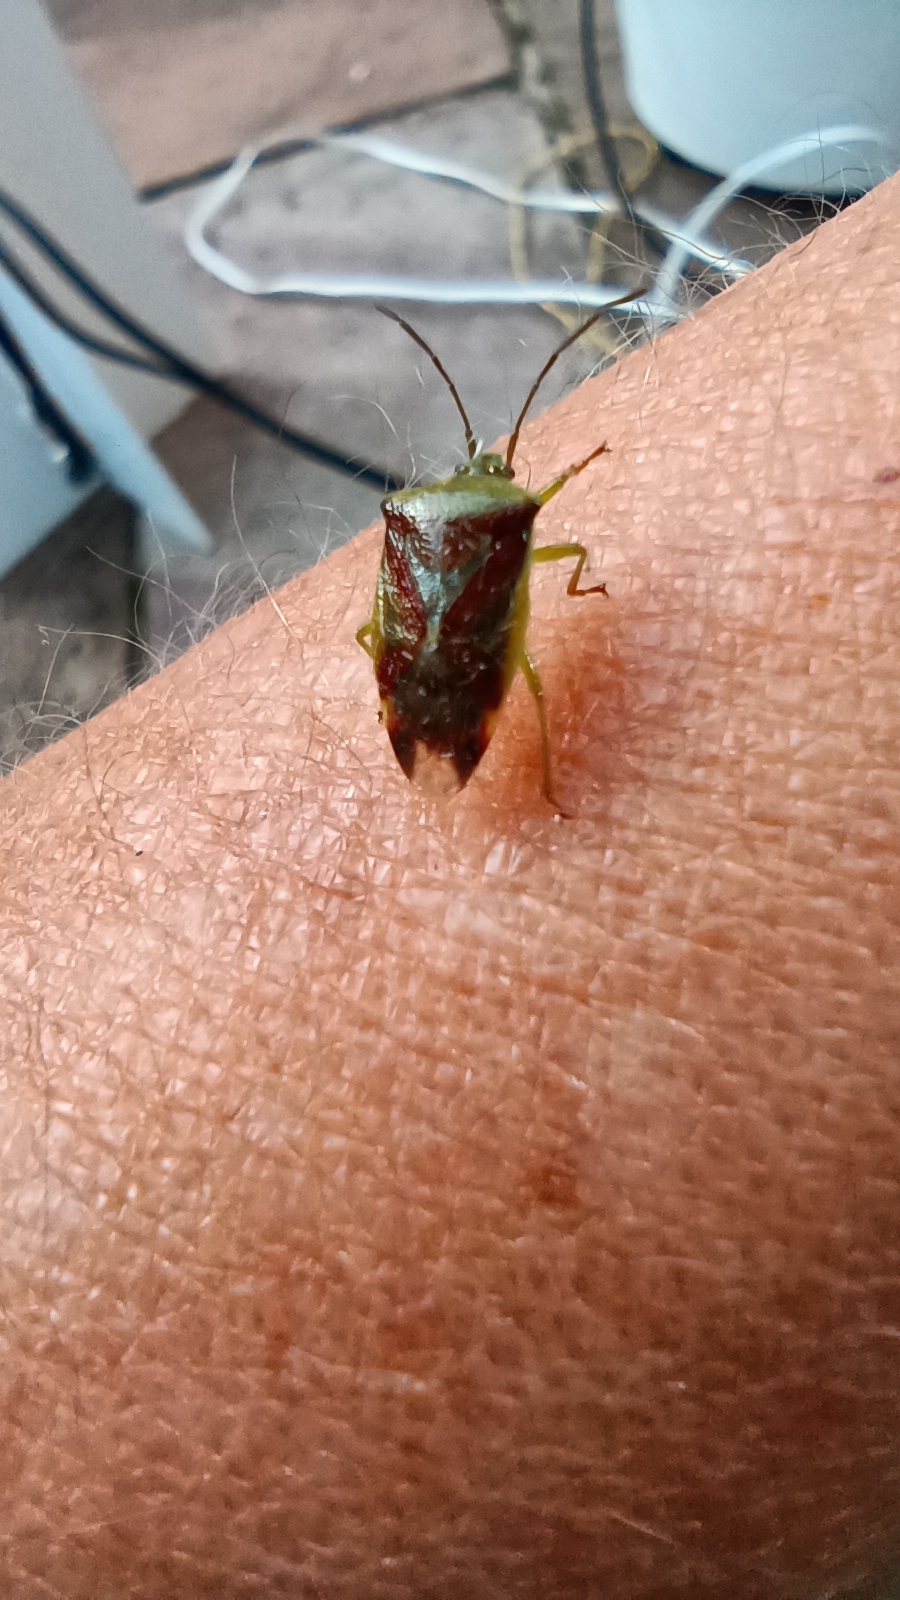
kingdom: Animalia
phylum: Arthropoda
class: Insecta
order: Hemiptera
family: Acanthosomatidae
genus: Elasmostethus
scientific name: Elasmostethus interstinctus
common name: Birch shieldbug
